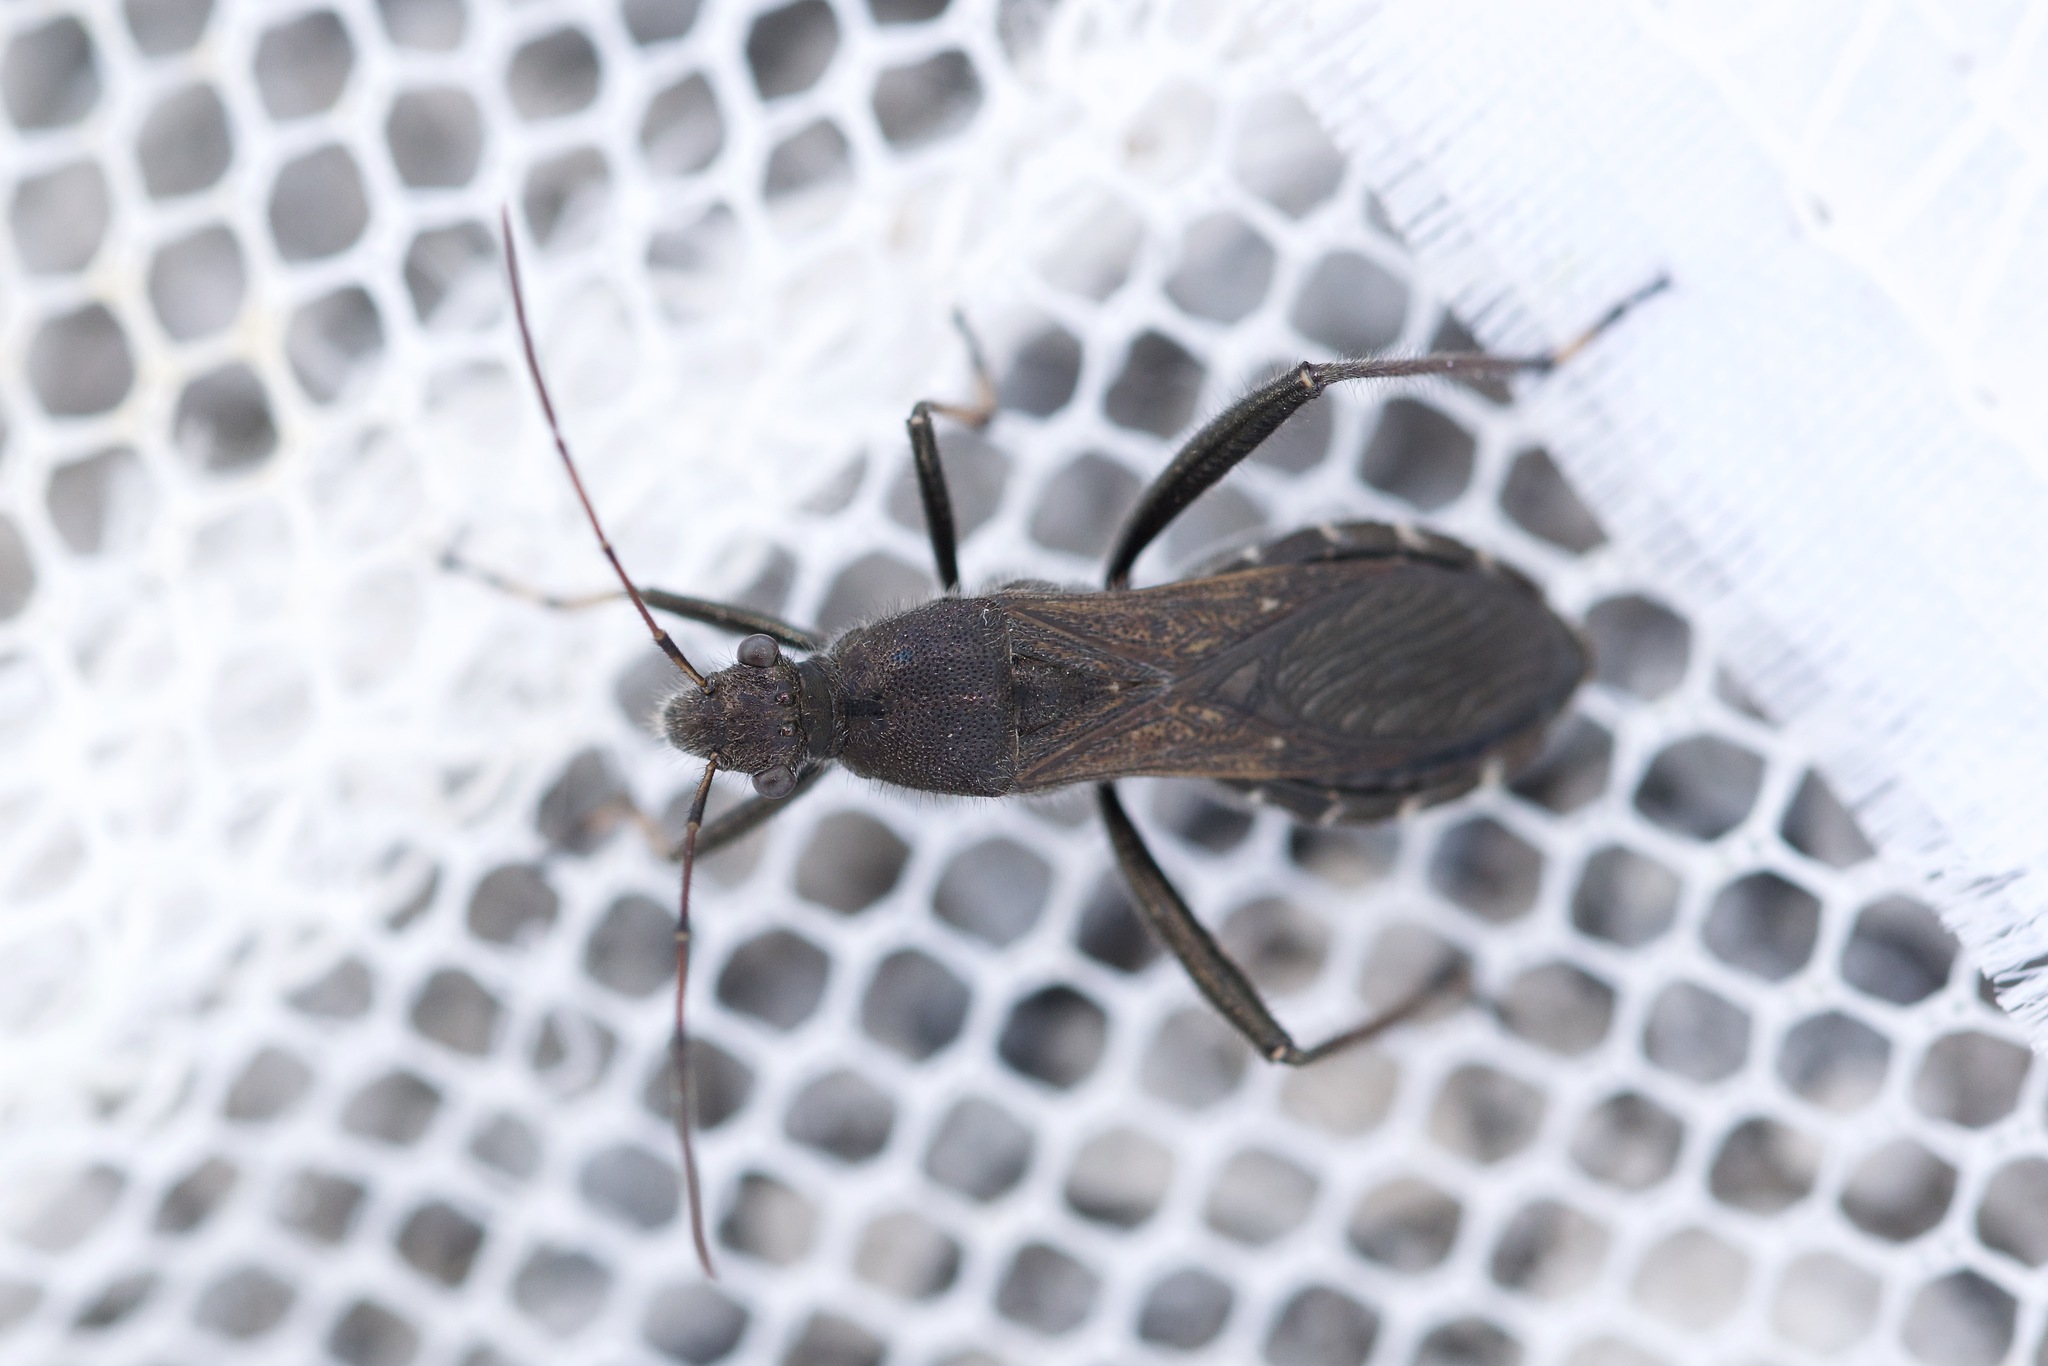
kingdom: Animalia
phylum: Arthropoda
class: Insecta
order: Hemiptera
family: Alydidae
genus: Alydus
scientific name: Alydus eurinus
